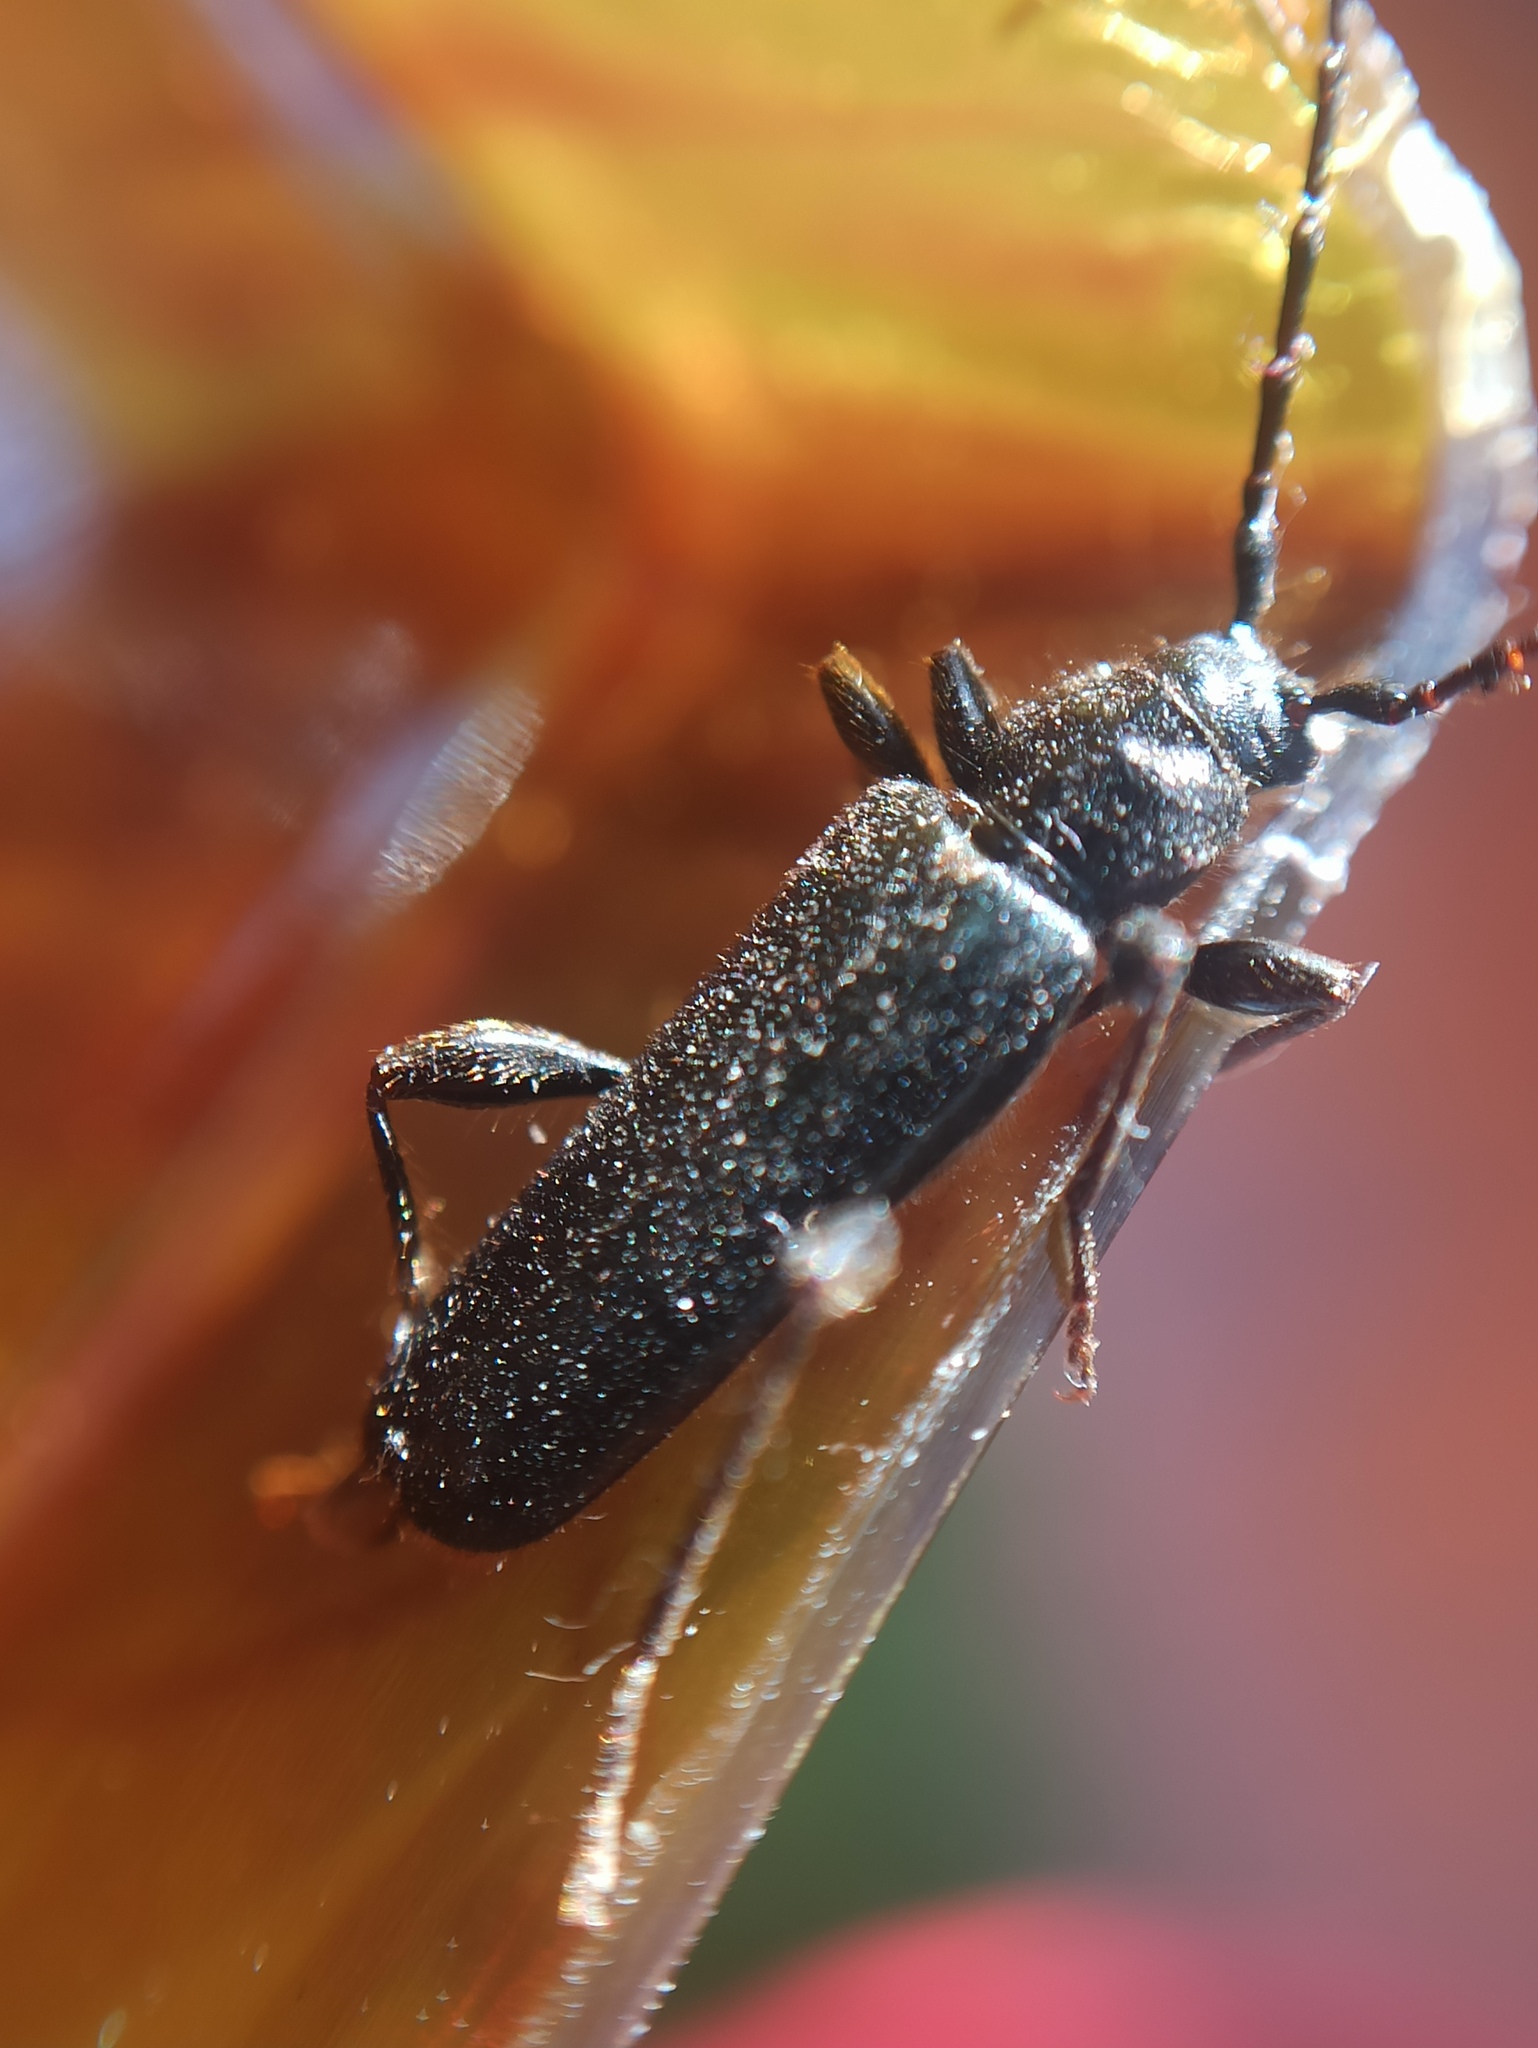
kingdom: Animalia
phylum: Arthropoda
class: Insecta
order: Coleoptera
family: Cerambycidae
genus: Phymatodes
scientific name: Phymatodes testaceus
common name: Long-horned beetle
